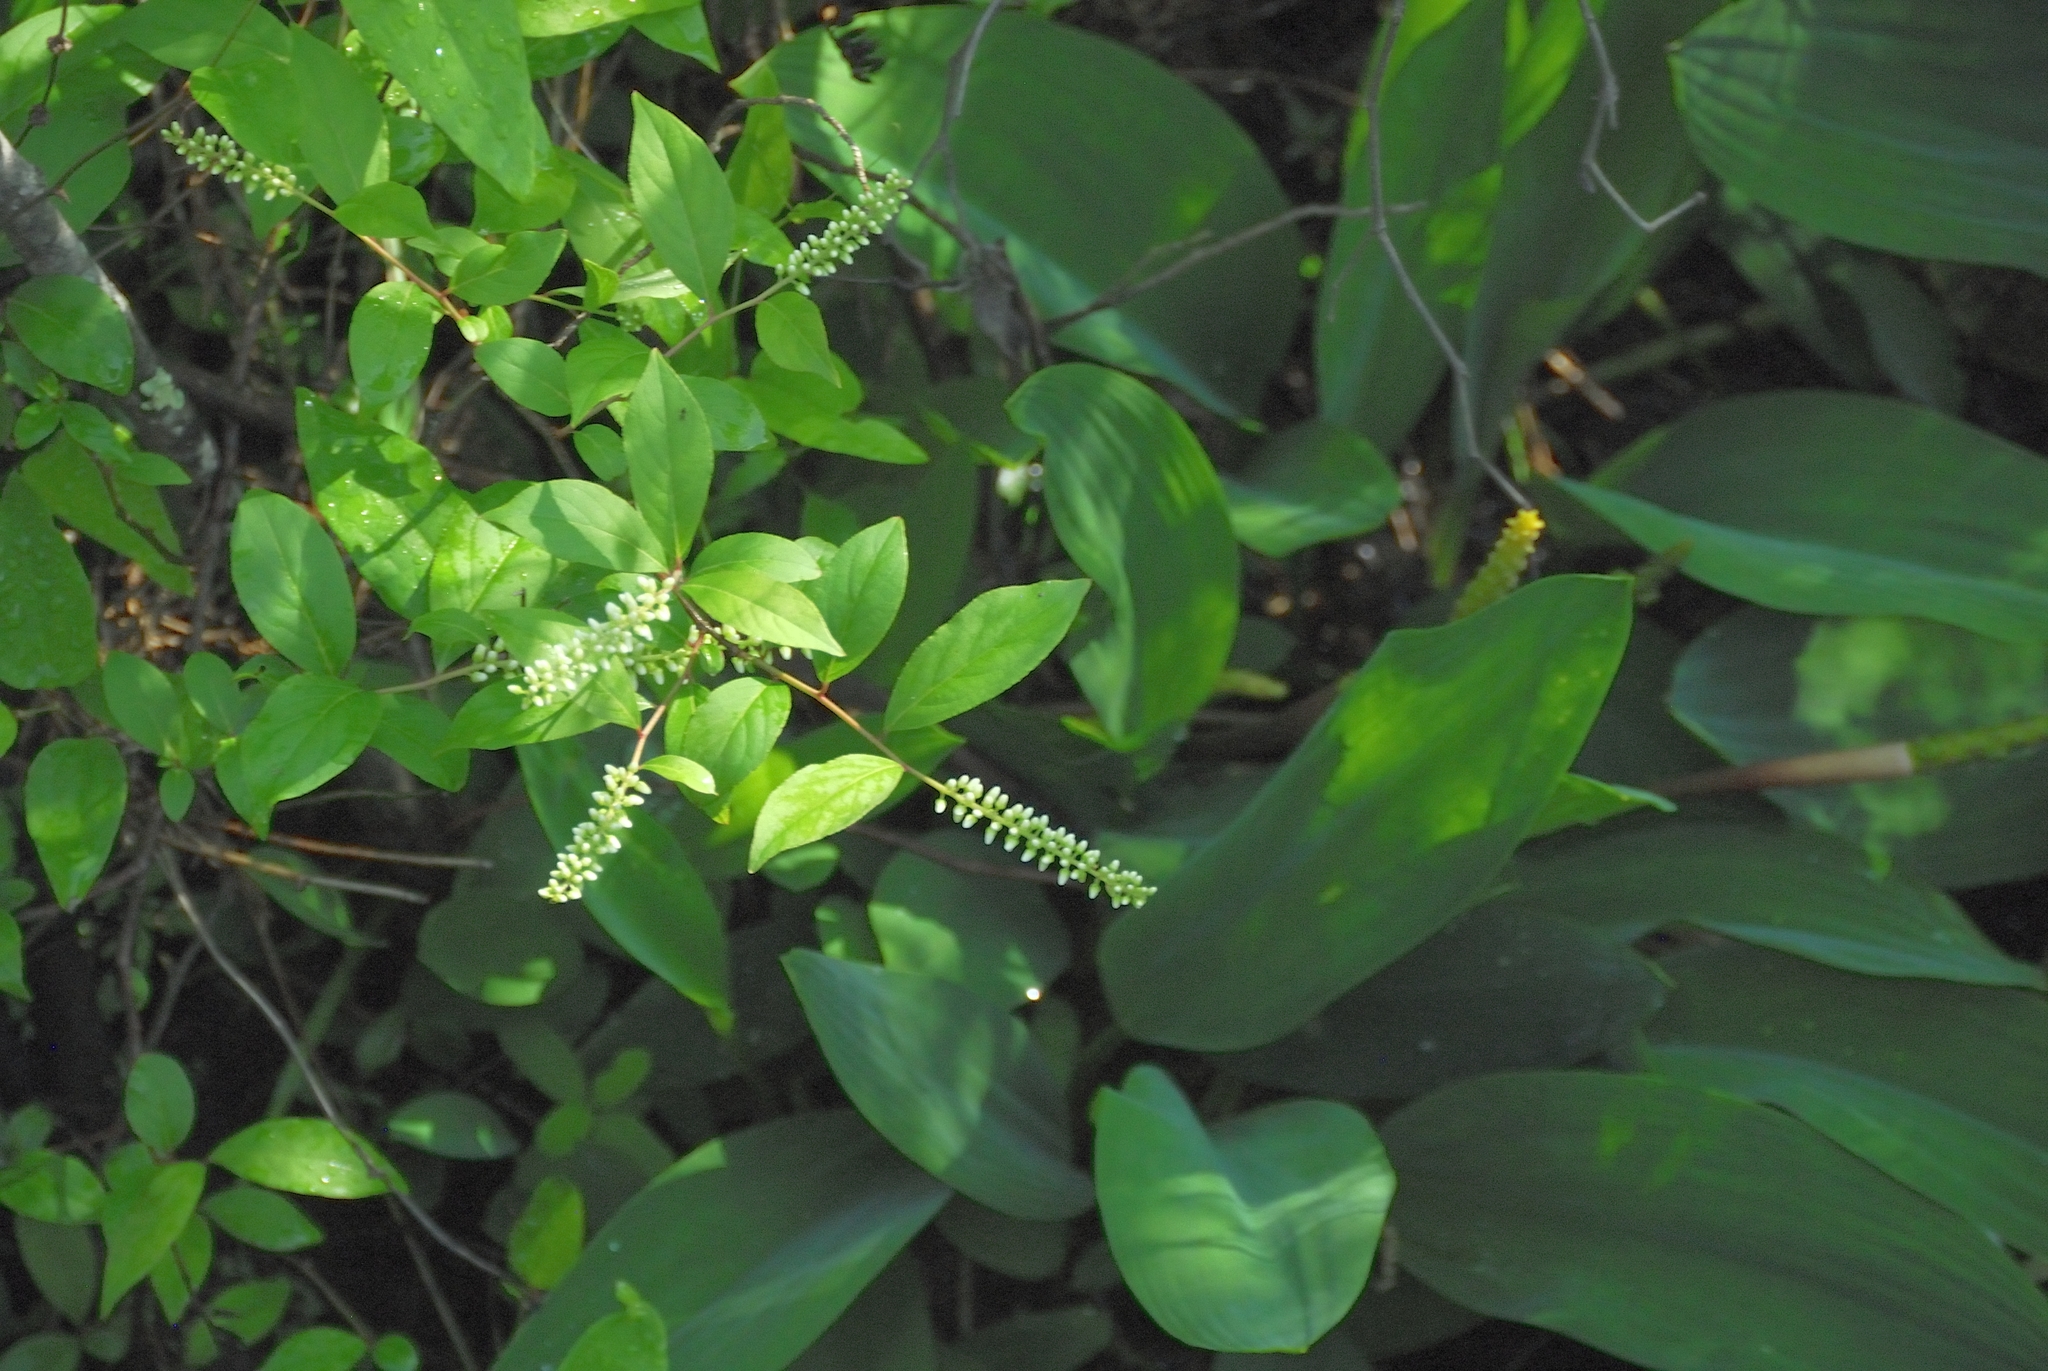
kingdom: Plantae
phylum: Tracheophyta
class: Magnoliopsida
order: Saxifragales
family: Iteaceae
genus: Itea
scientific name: Itea virginica
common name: Sweetspire
